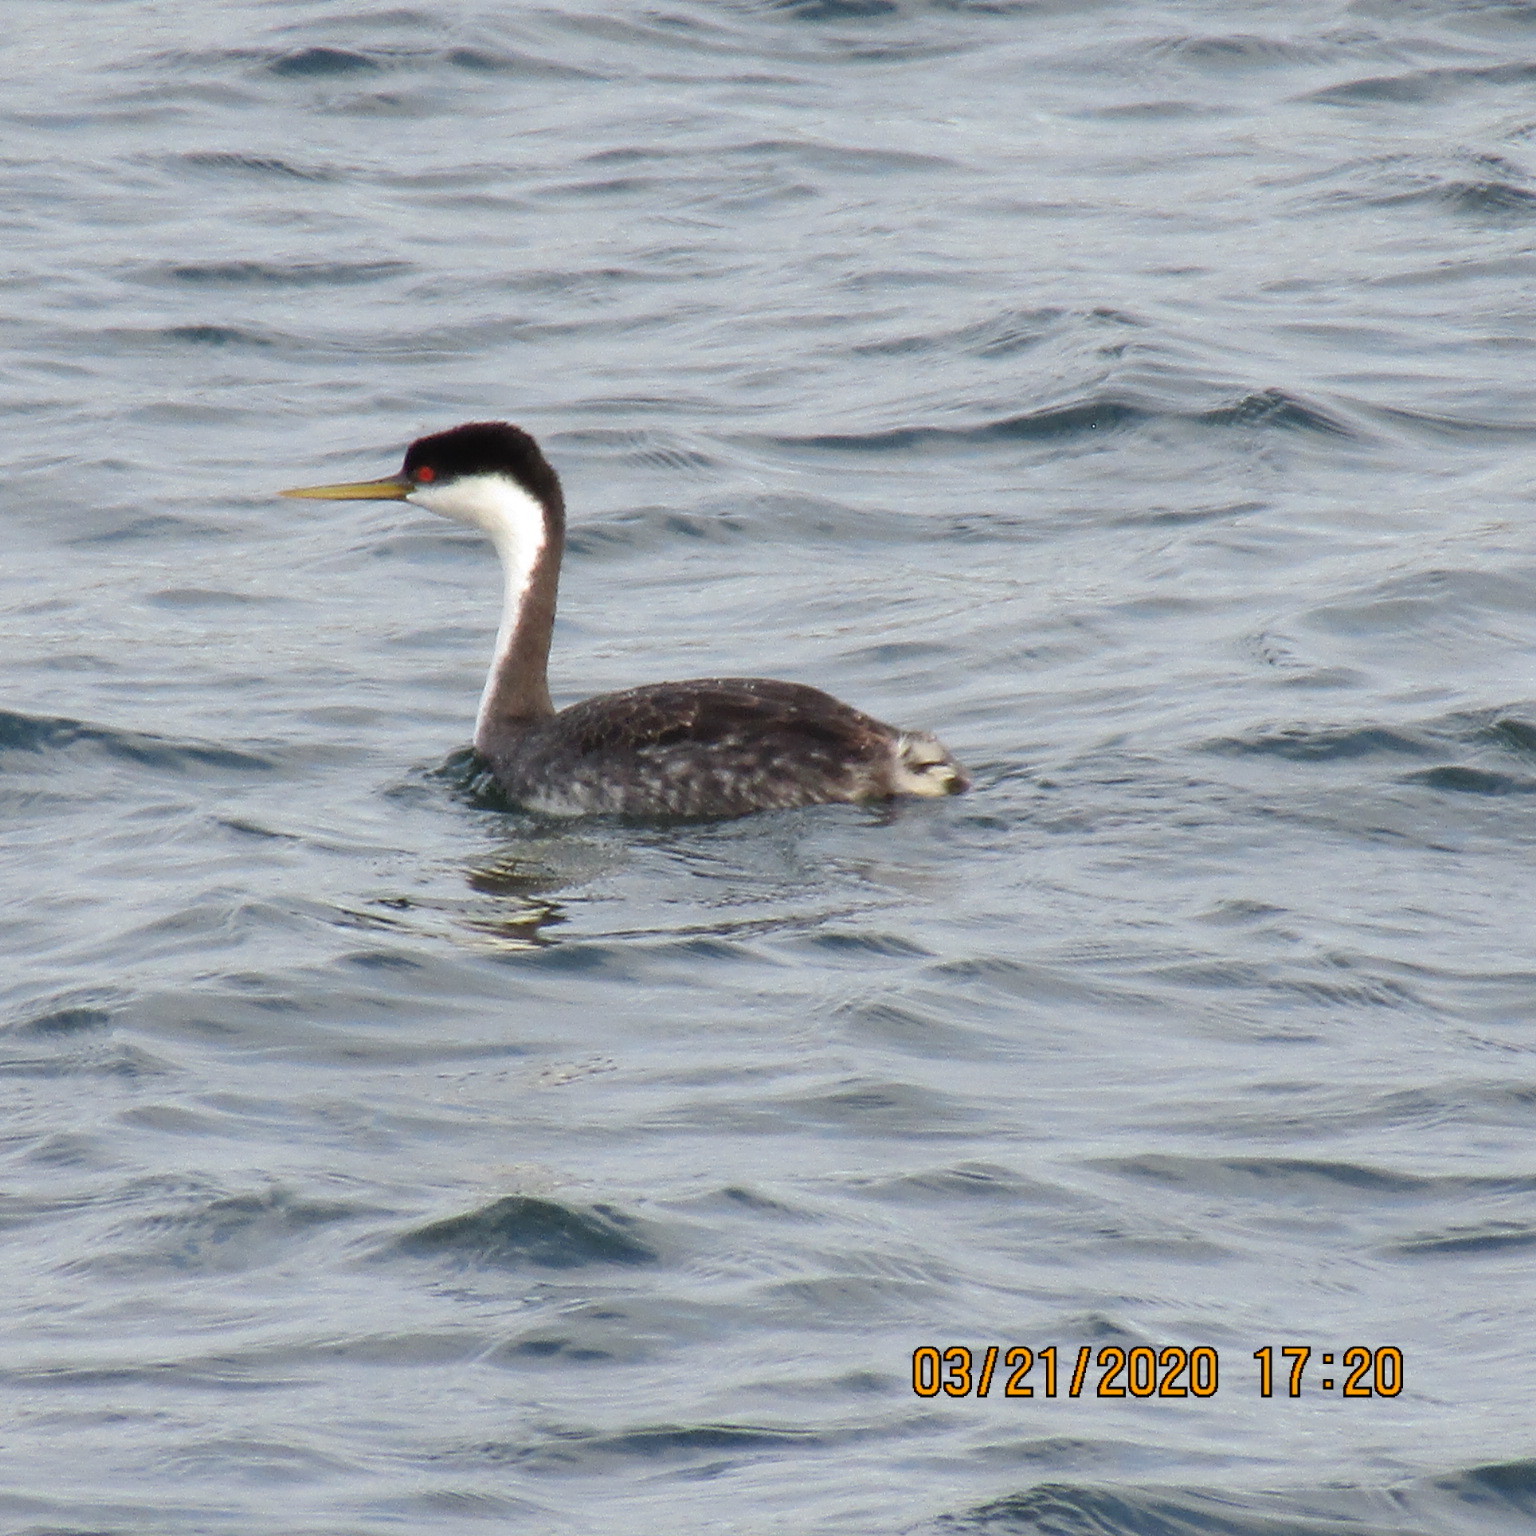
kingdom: Animalia
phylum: Chordata
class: Aves
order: Podicipediformes
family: Podicipedidae
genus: Aechmophorus
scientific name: Aechmophorus occidentalis
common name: Western grebe
